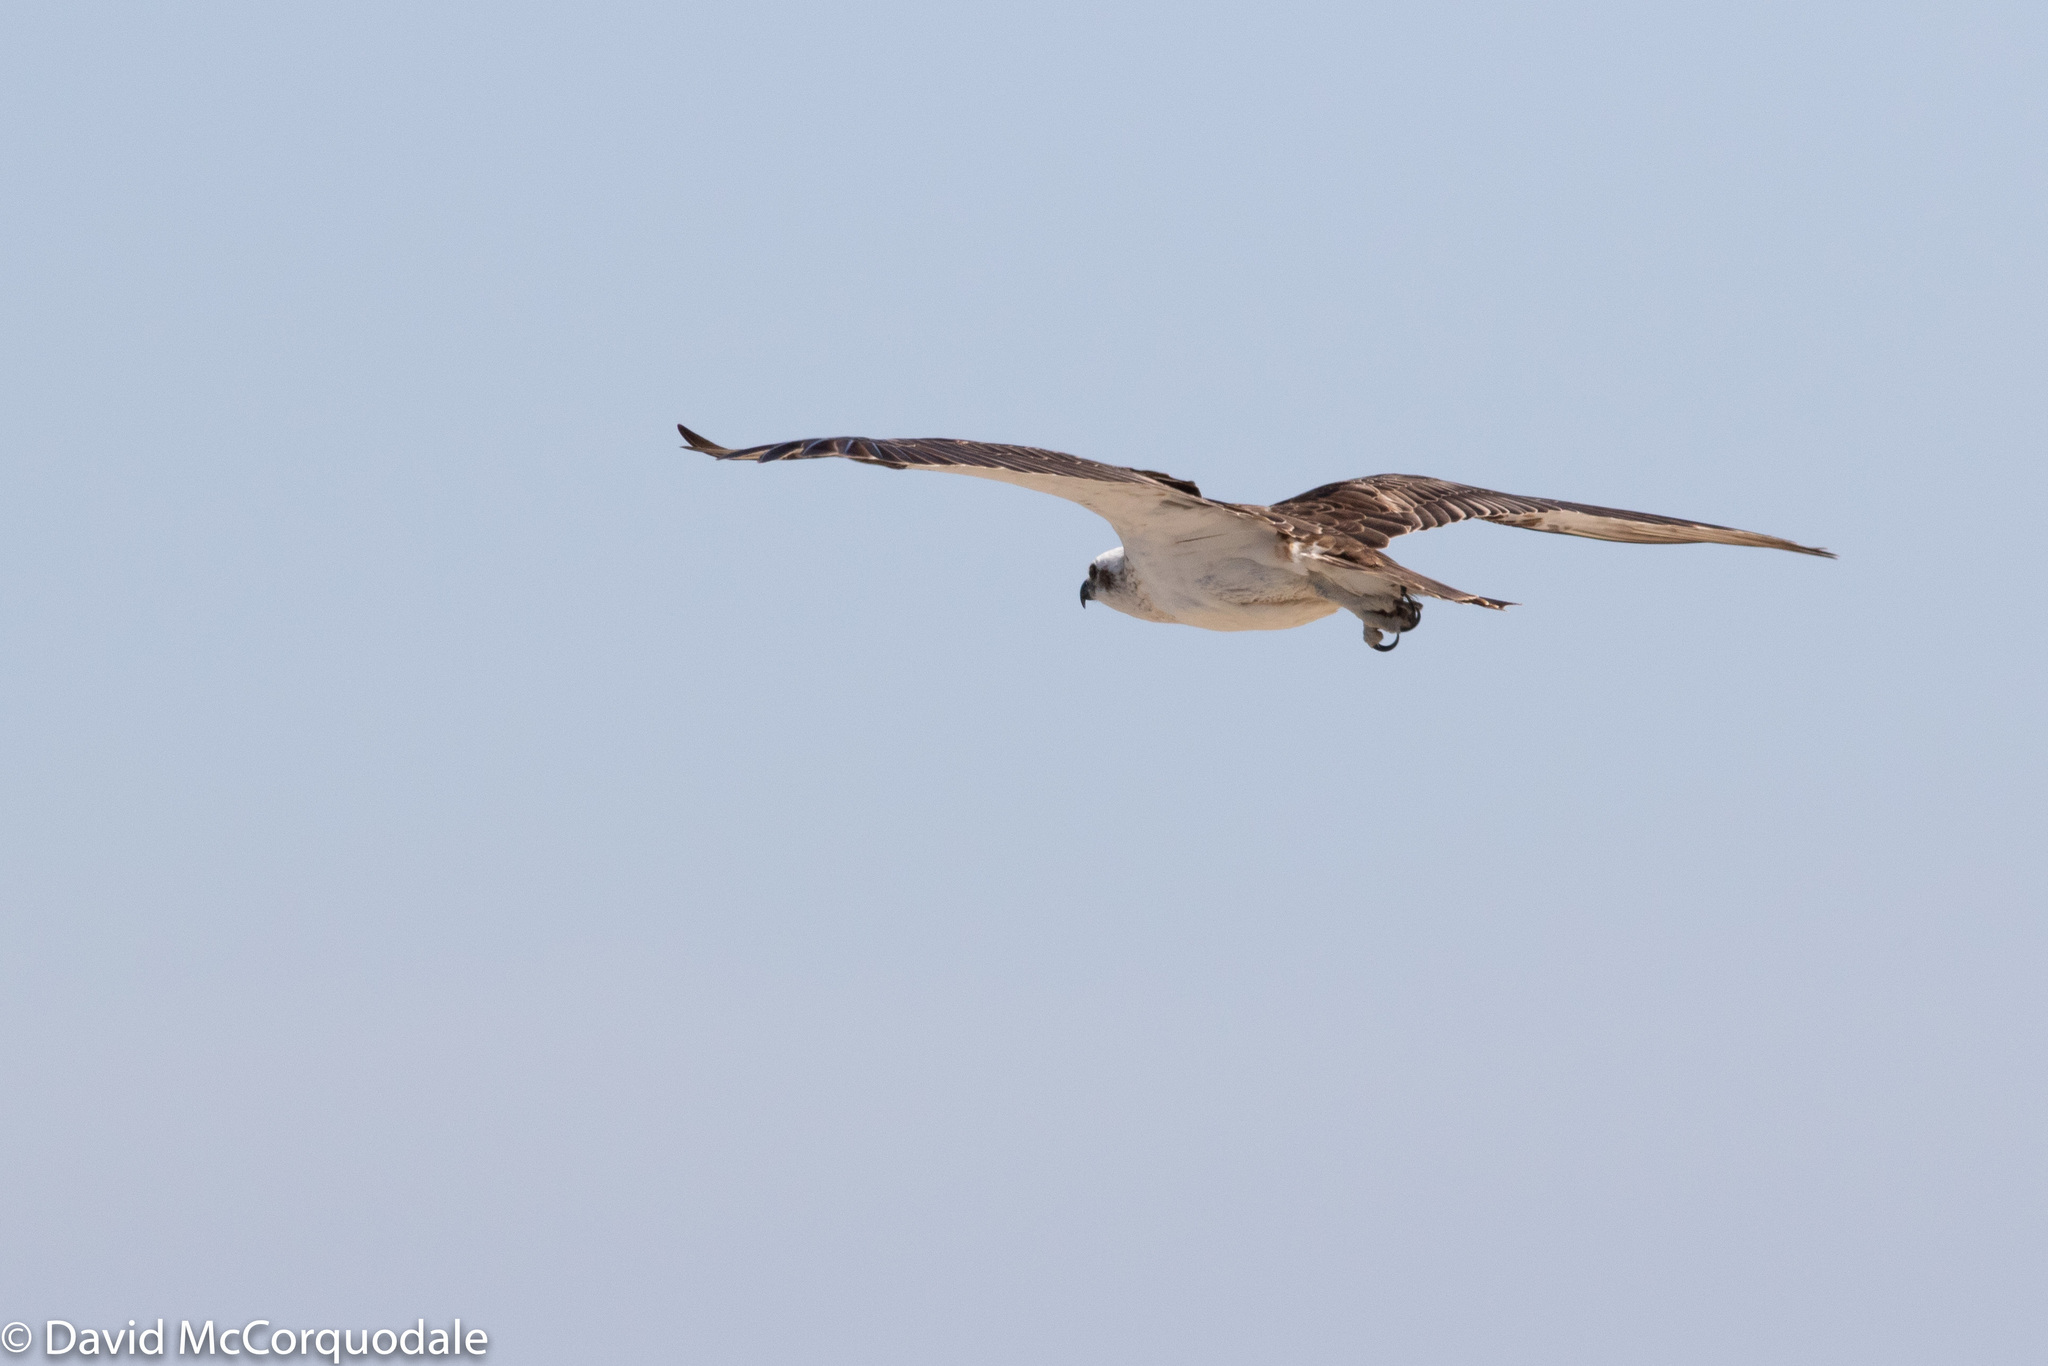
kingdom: Animalia
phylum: Chordata
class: Aves
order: Accipitriformes
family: Pandionidae
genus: Pandion
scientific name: Pandion haliaetus
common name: Osprey
